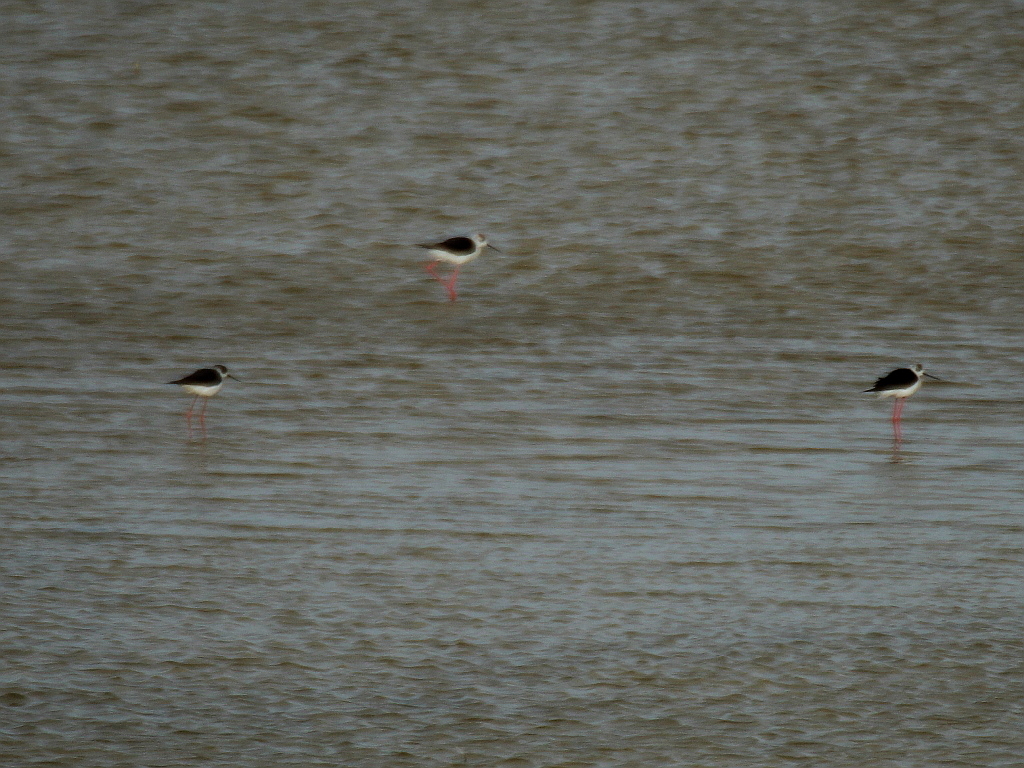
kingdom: Animalia
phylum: Chordata
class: Aves
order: Charadriiformes
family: Recurvirostridae
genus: Himantopus
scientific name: Himantopus himantopus
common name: Black-winged stilt
